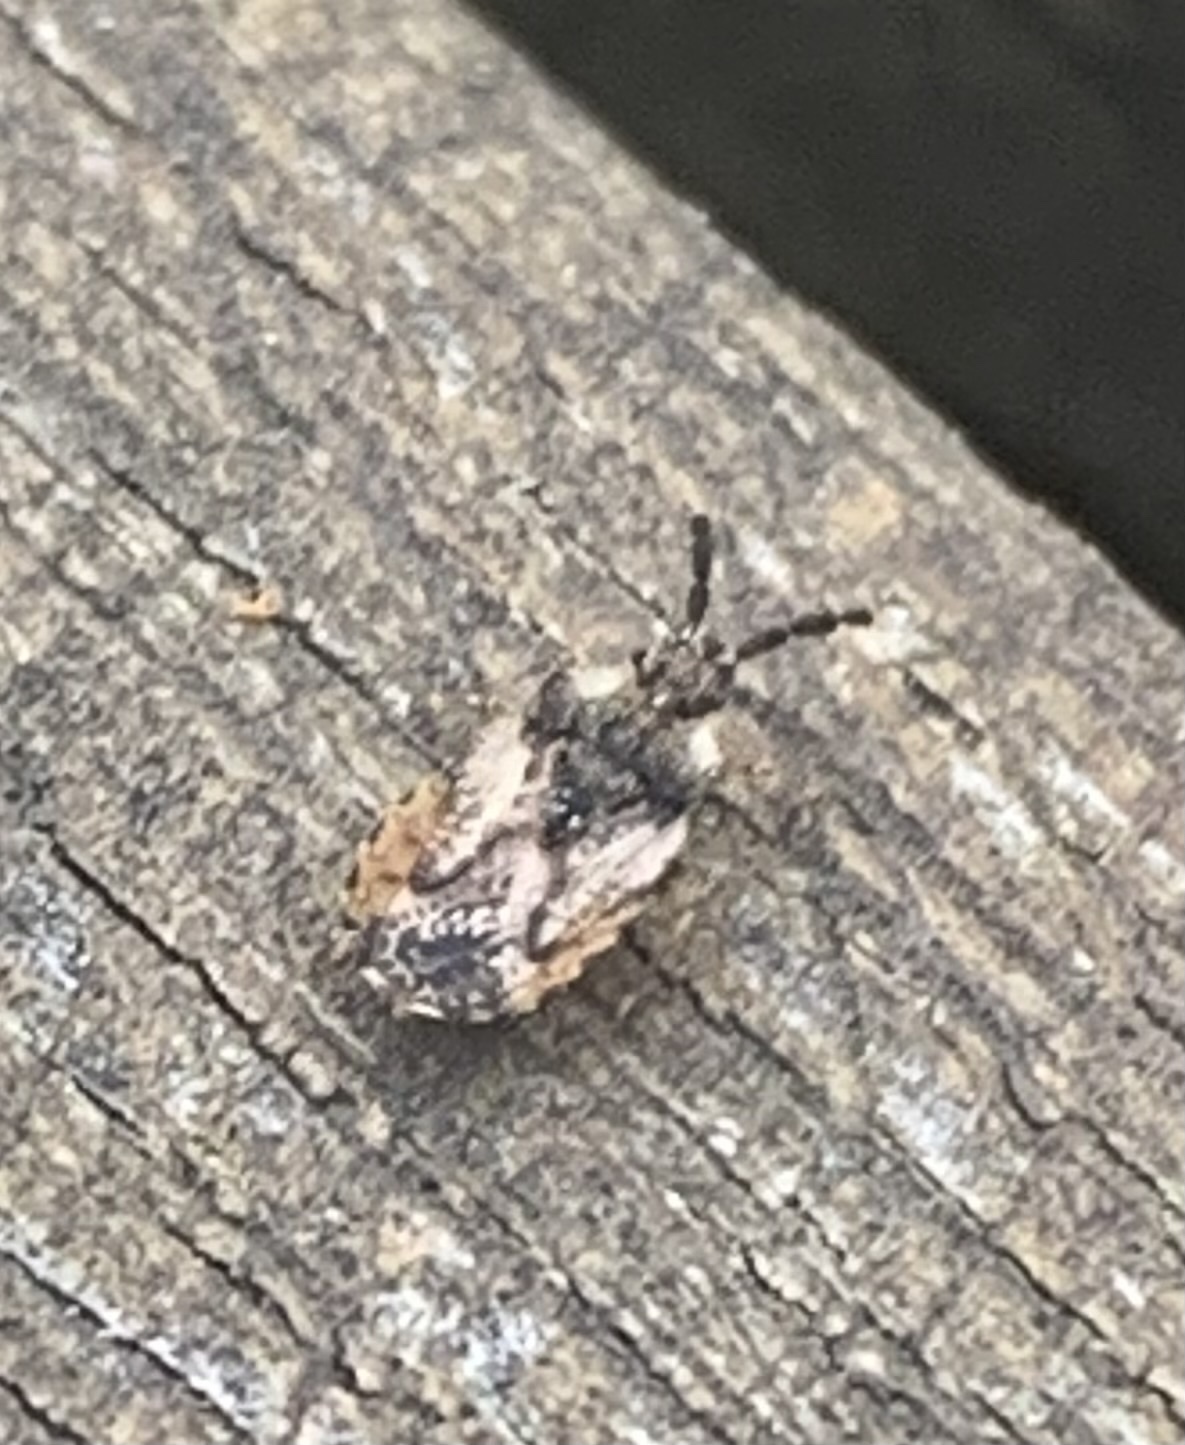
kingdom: Animalia
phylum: Arthropoda
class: Insecta
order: Hemiptera
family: Aradidae
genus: Aradus
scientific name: Aradus depressus
